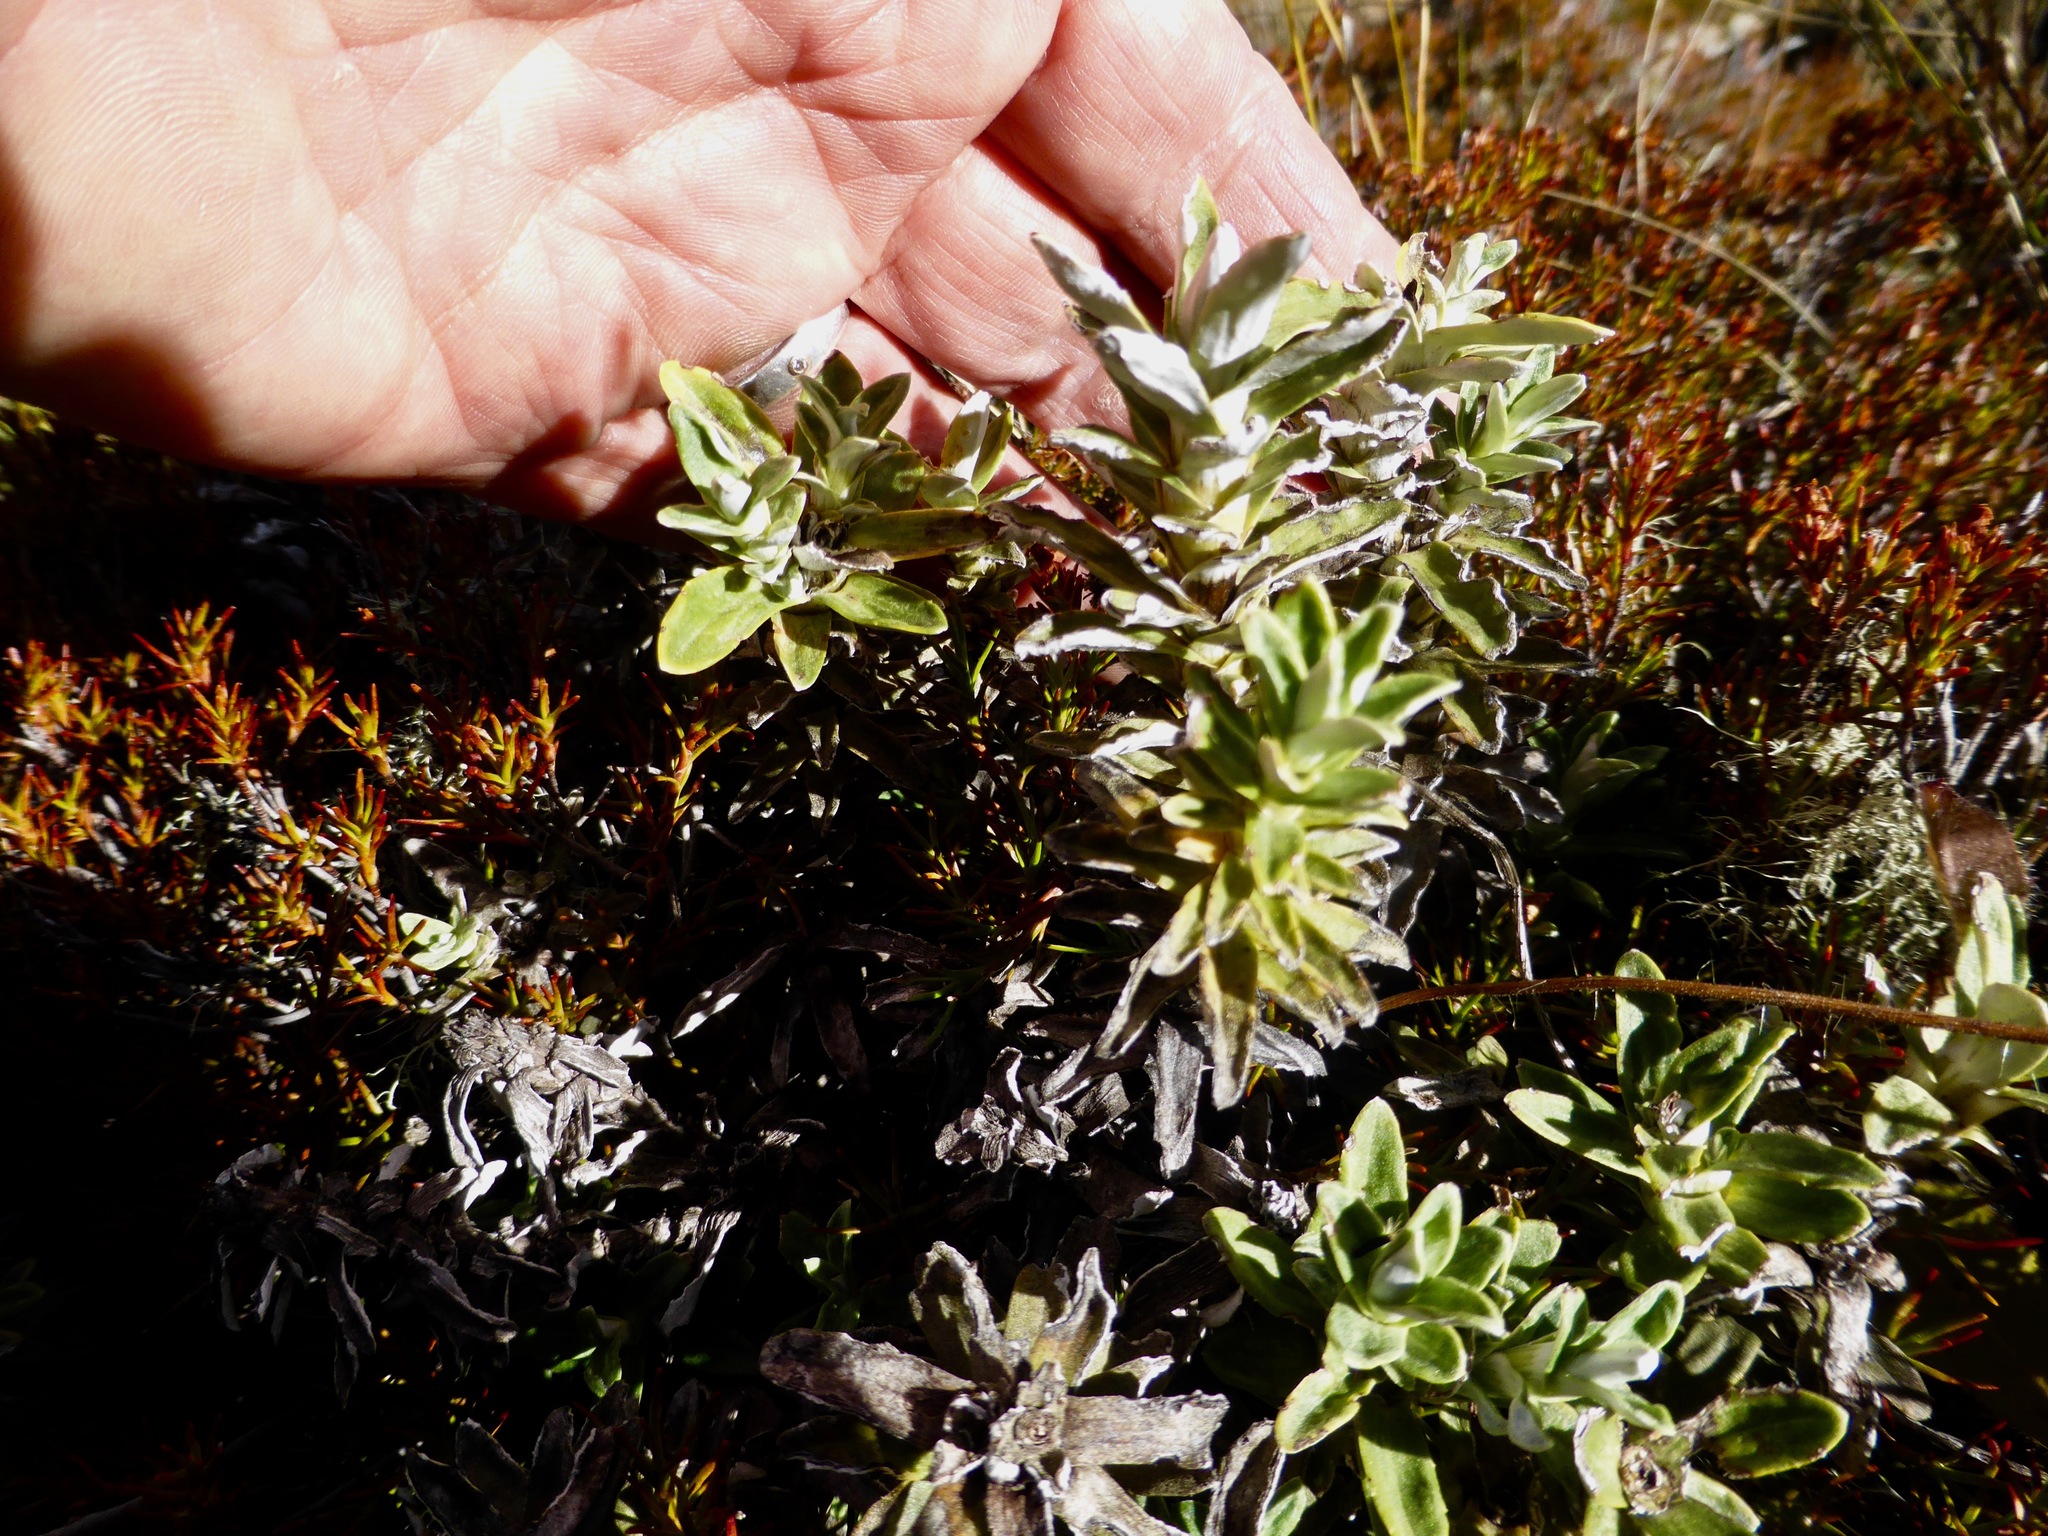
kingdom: Plantae
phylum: Tracheophyta
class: Magnoliopsida
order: Asterales
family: Asteraceae
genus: Celmisia
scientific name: Celmisia angustifolia
